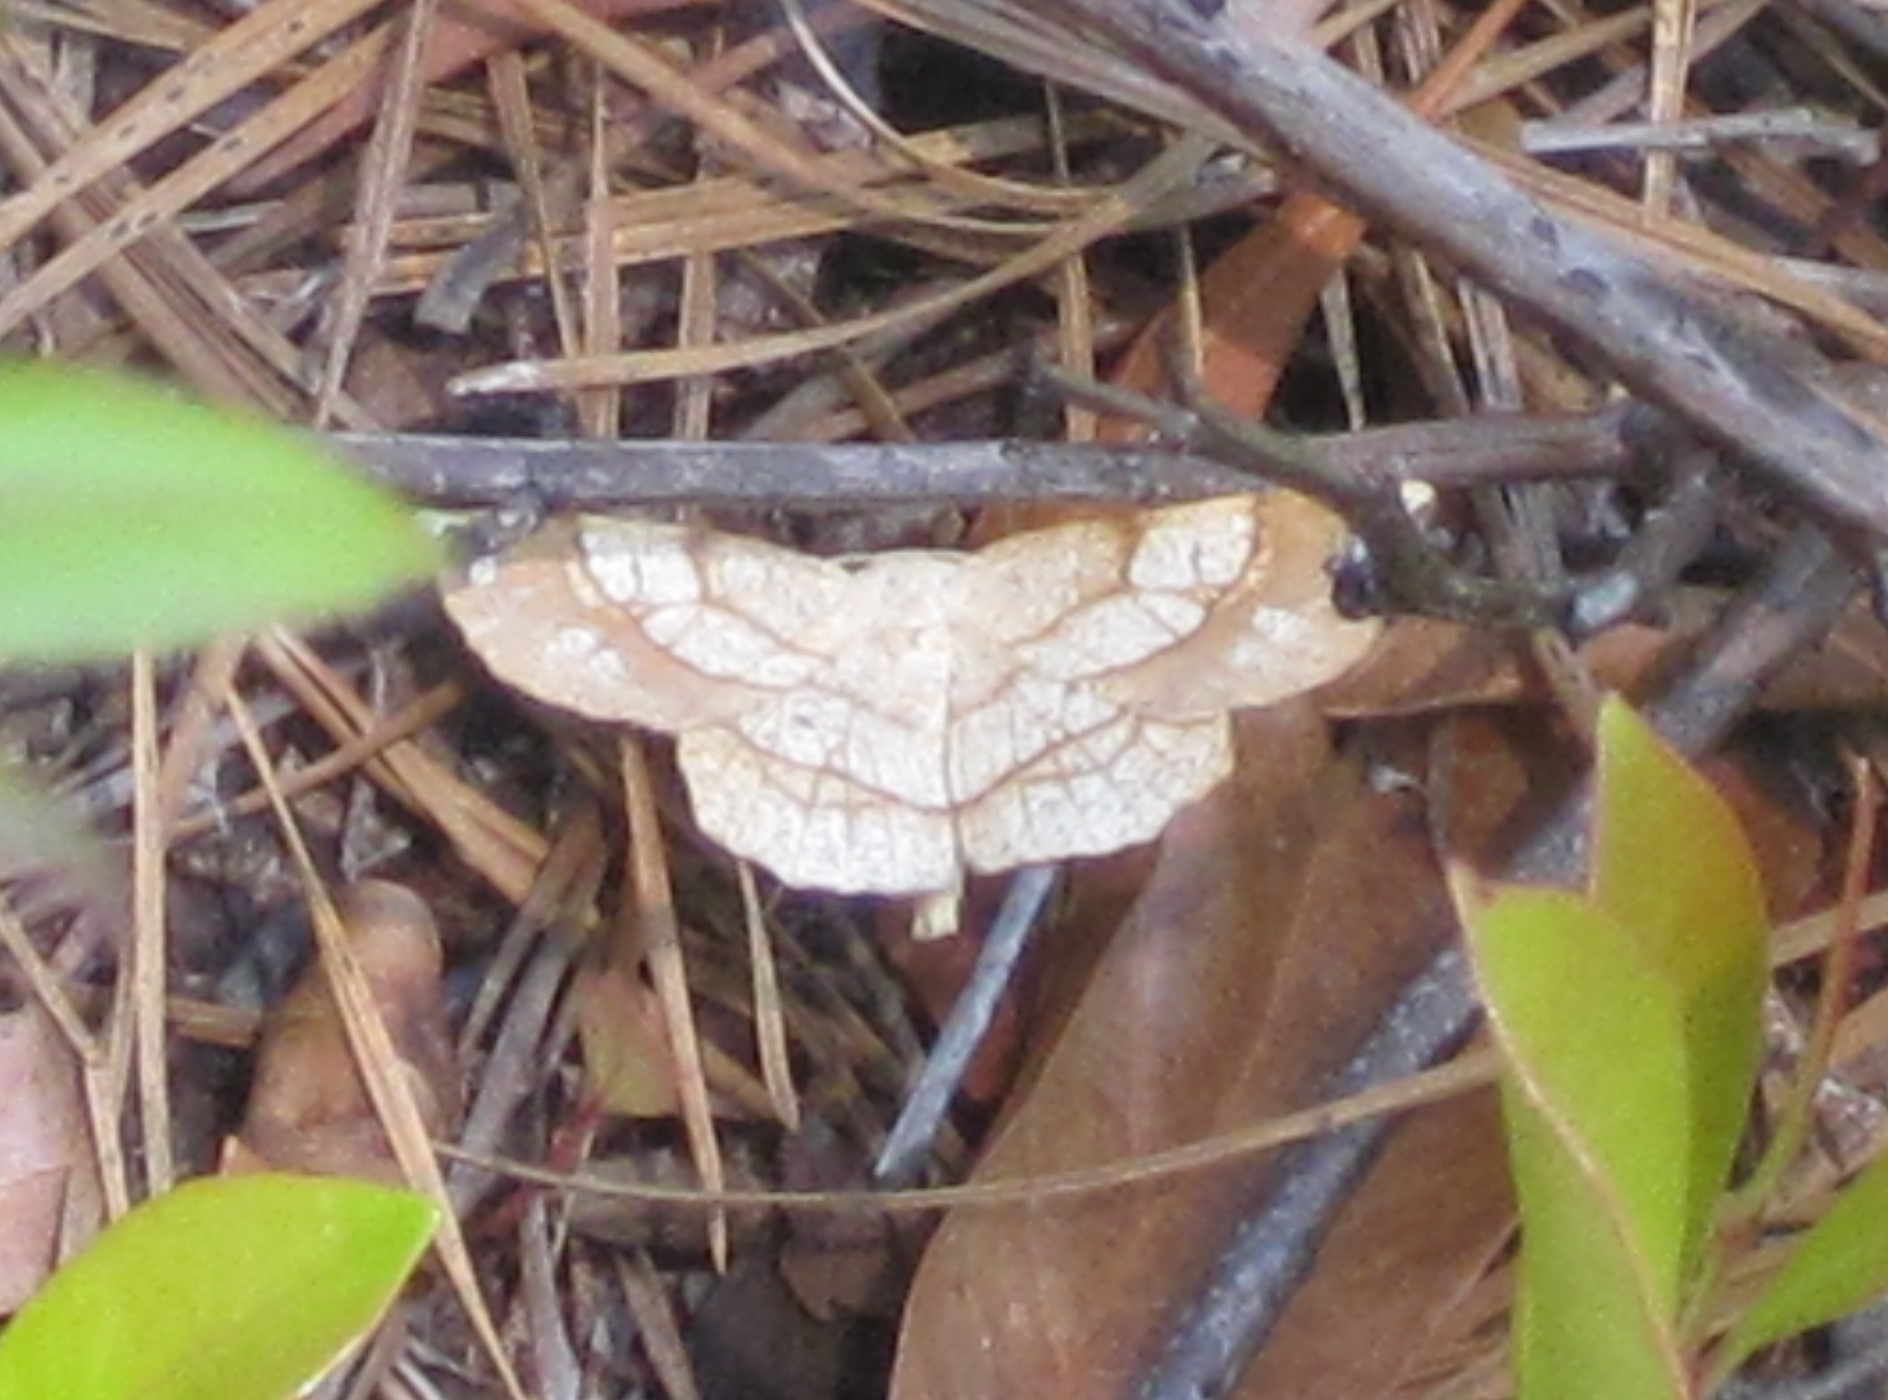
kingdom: Animalia
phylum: Arthropoda
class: Insecta
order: Lepidoptera
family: Geometridae
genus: Euchlaena
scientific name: Euchlaena madusaria
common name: Scrub euchlaena moth
